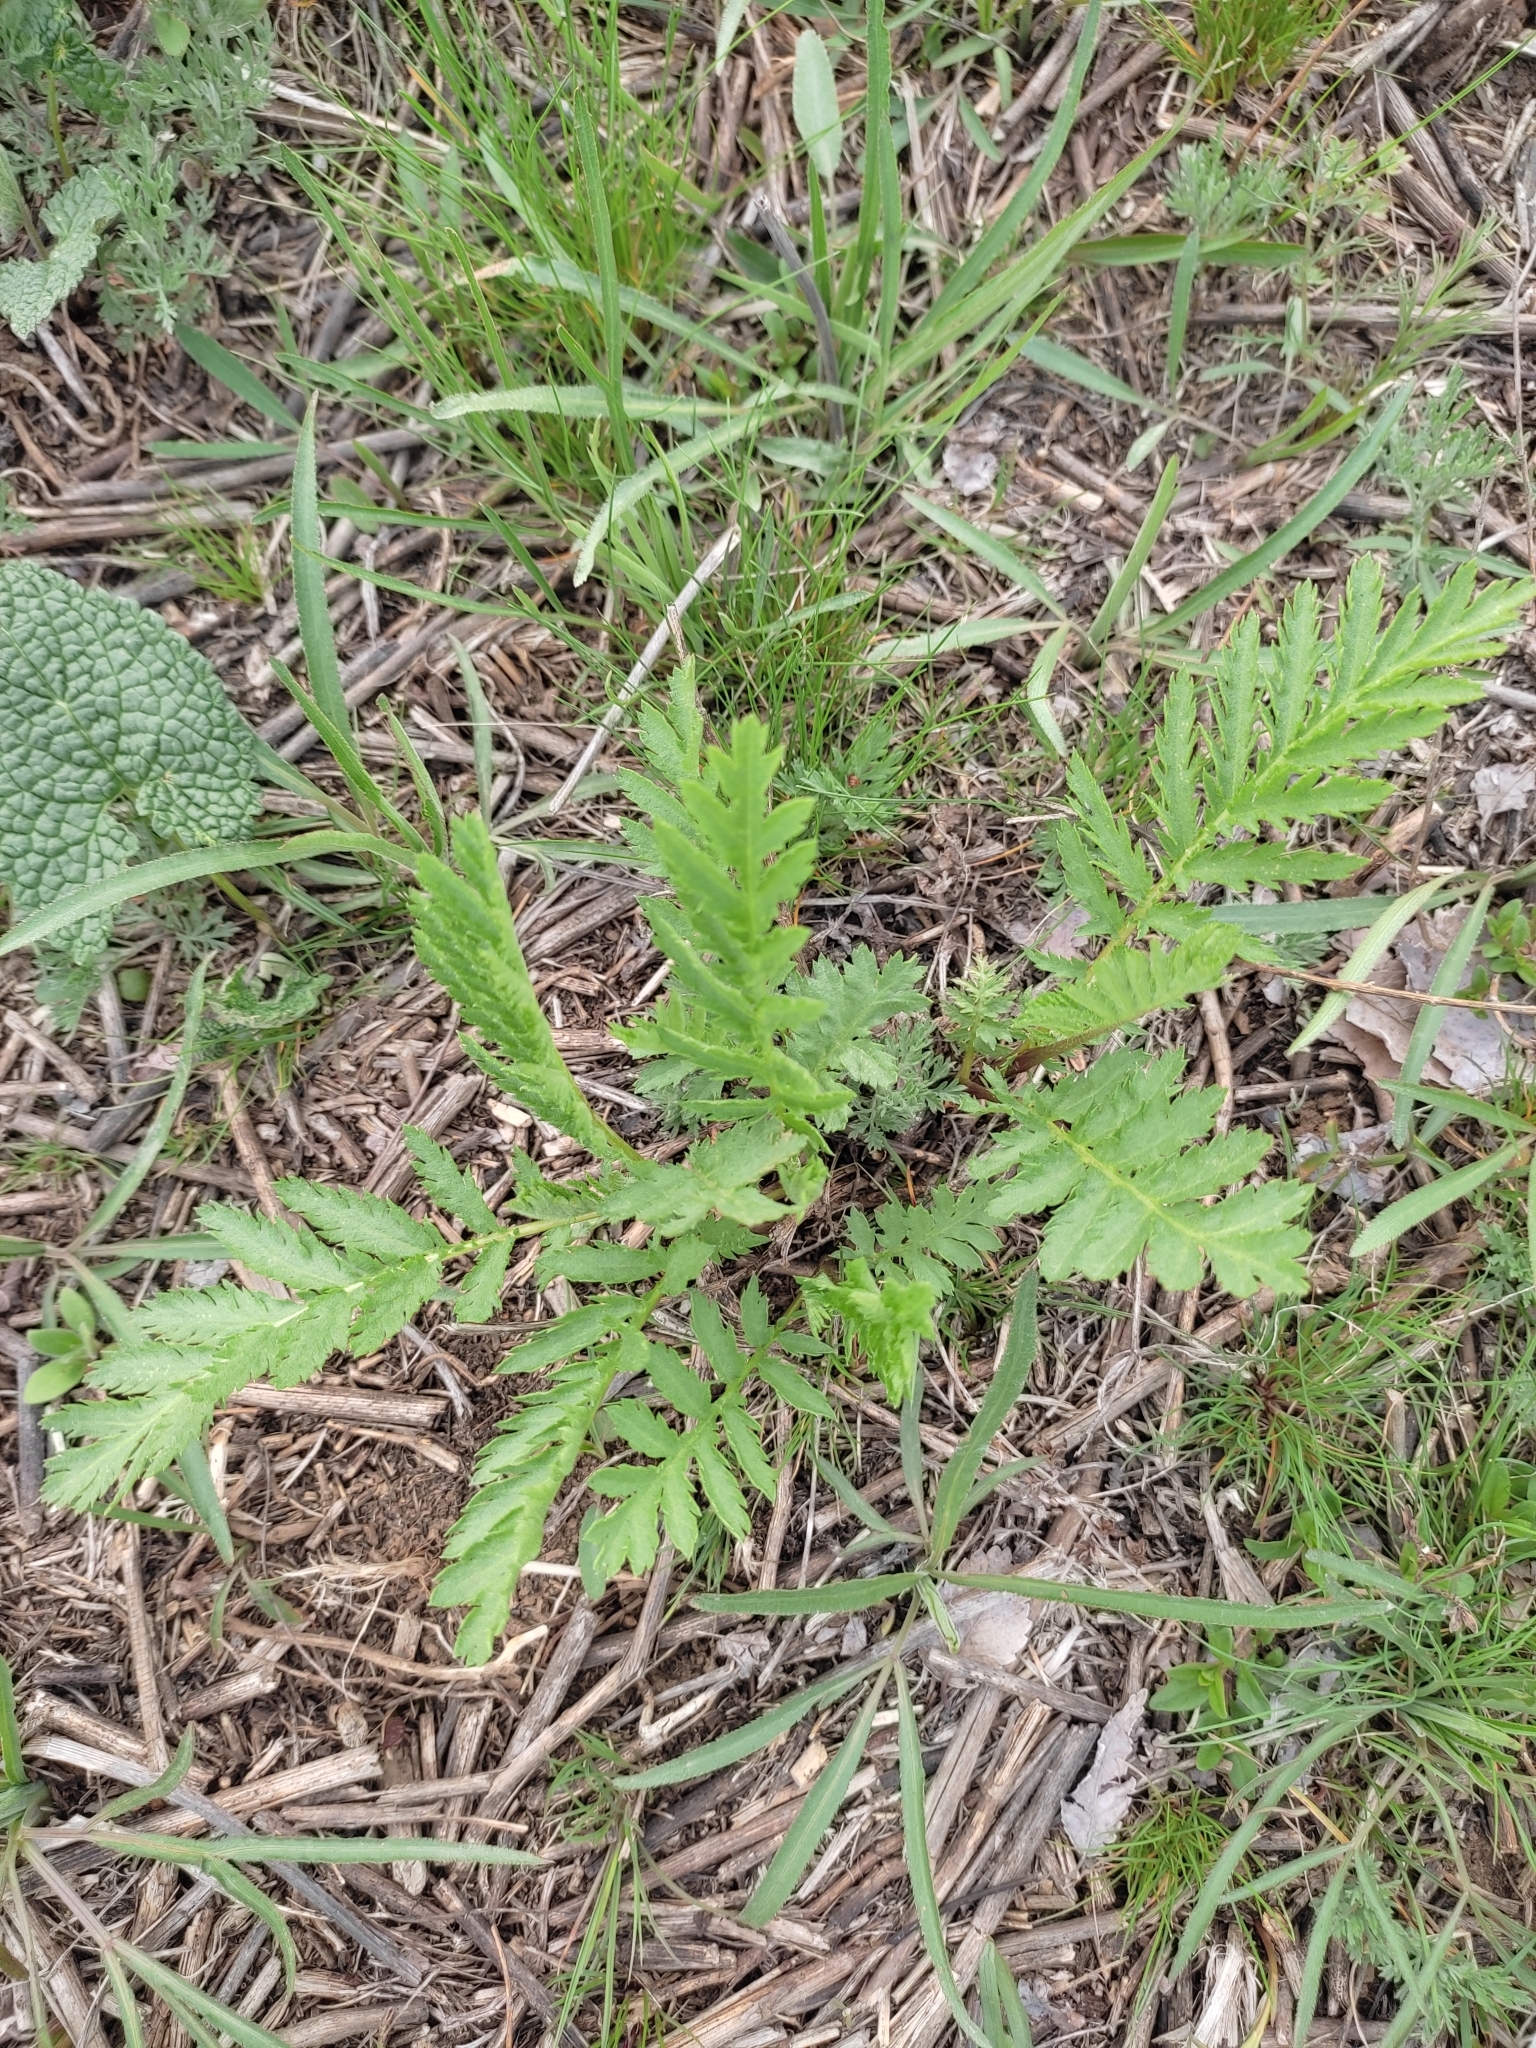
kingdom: Plantae
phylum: Tracheophyta
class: Magnoliopsida
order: Asterales
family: Asteraceae
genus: Tanacetum
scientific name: Tanacetum vulgare
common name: Common tansy
